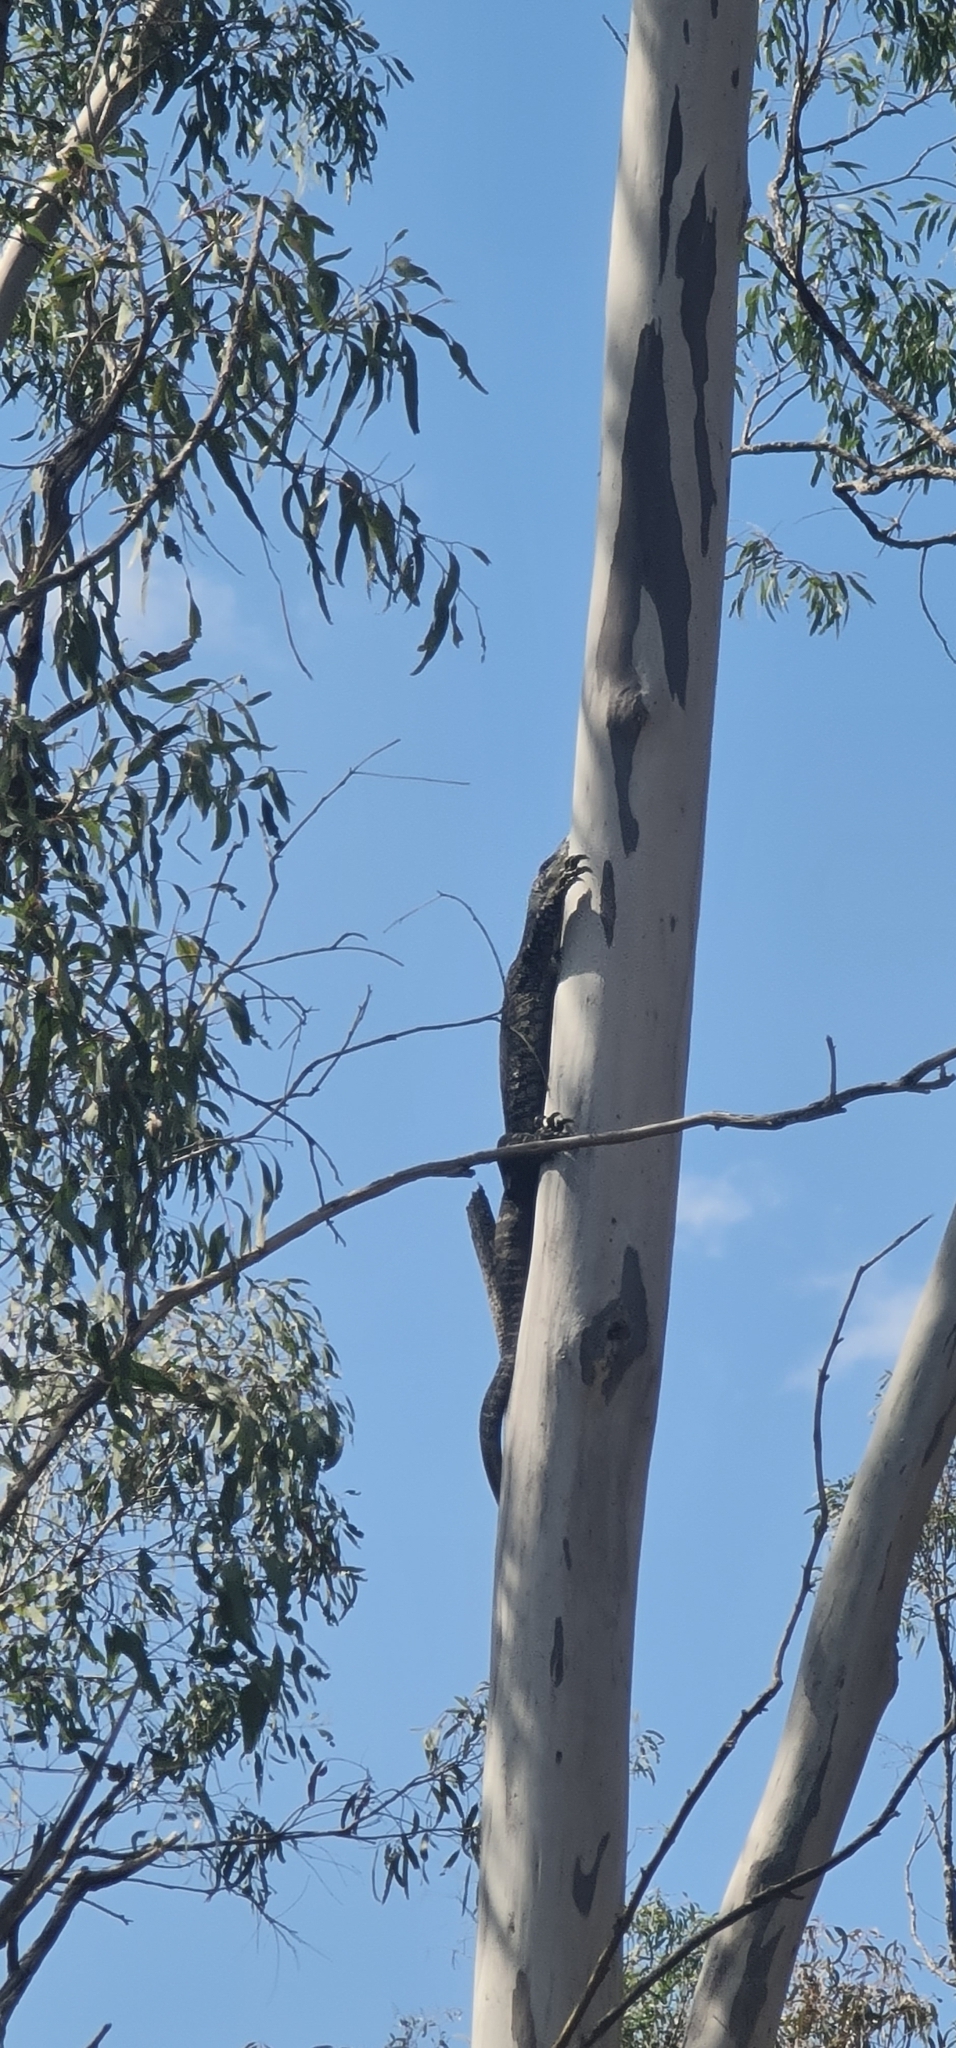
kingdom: Animalia
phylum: Chordata
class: Squamata
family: Varanidae
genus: Varanus
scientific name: Varanus varius
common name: Lace monitor
